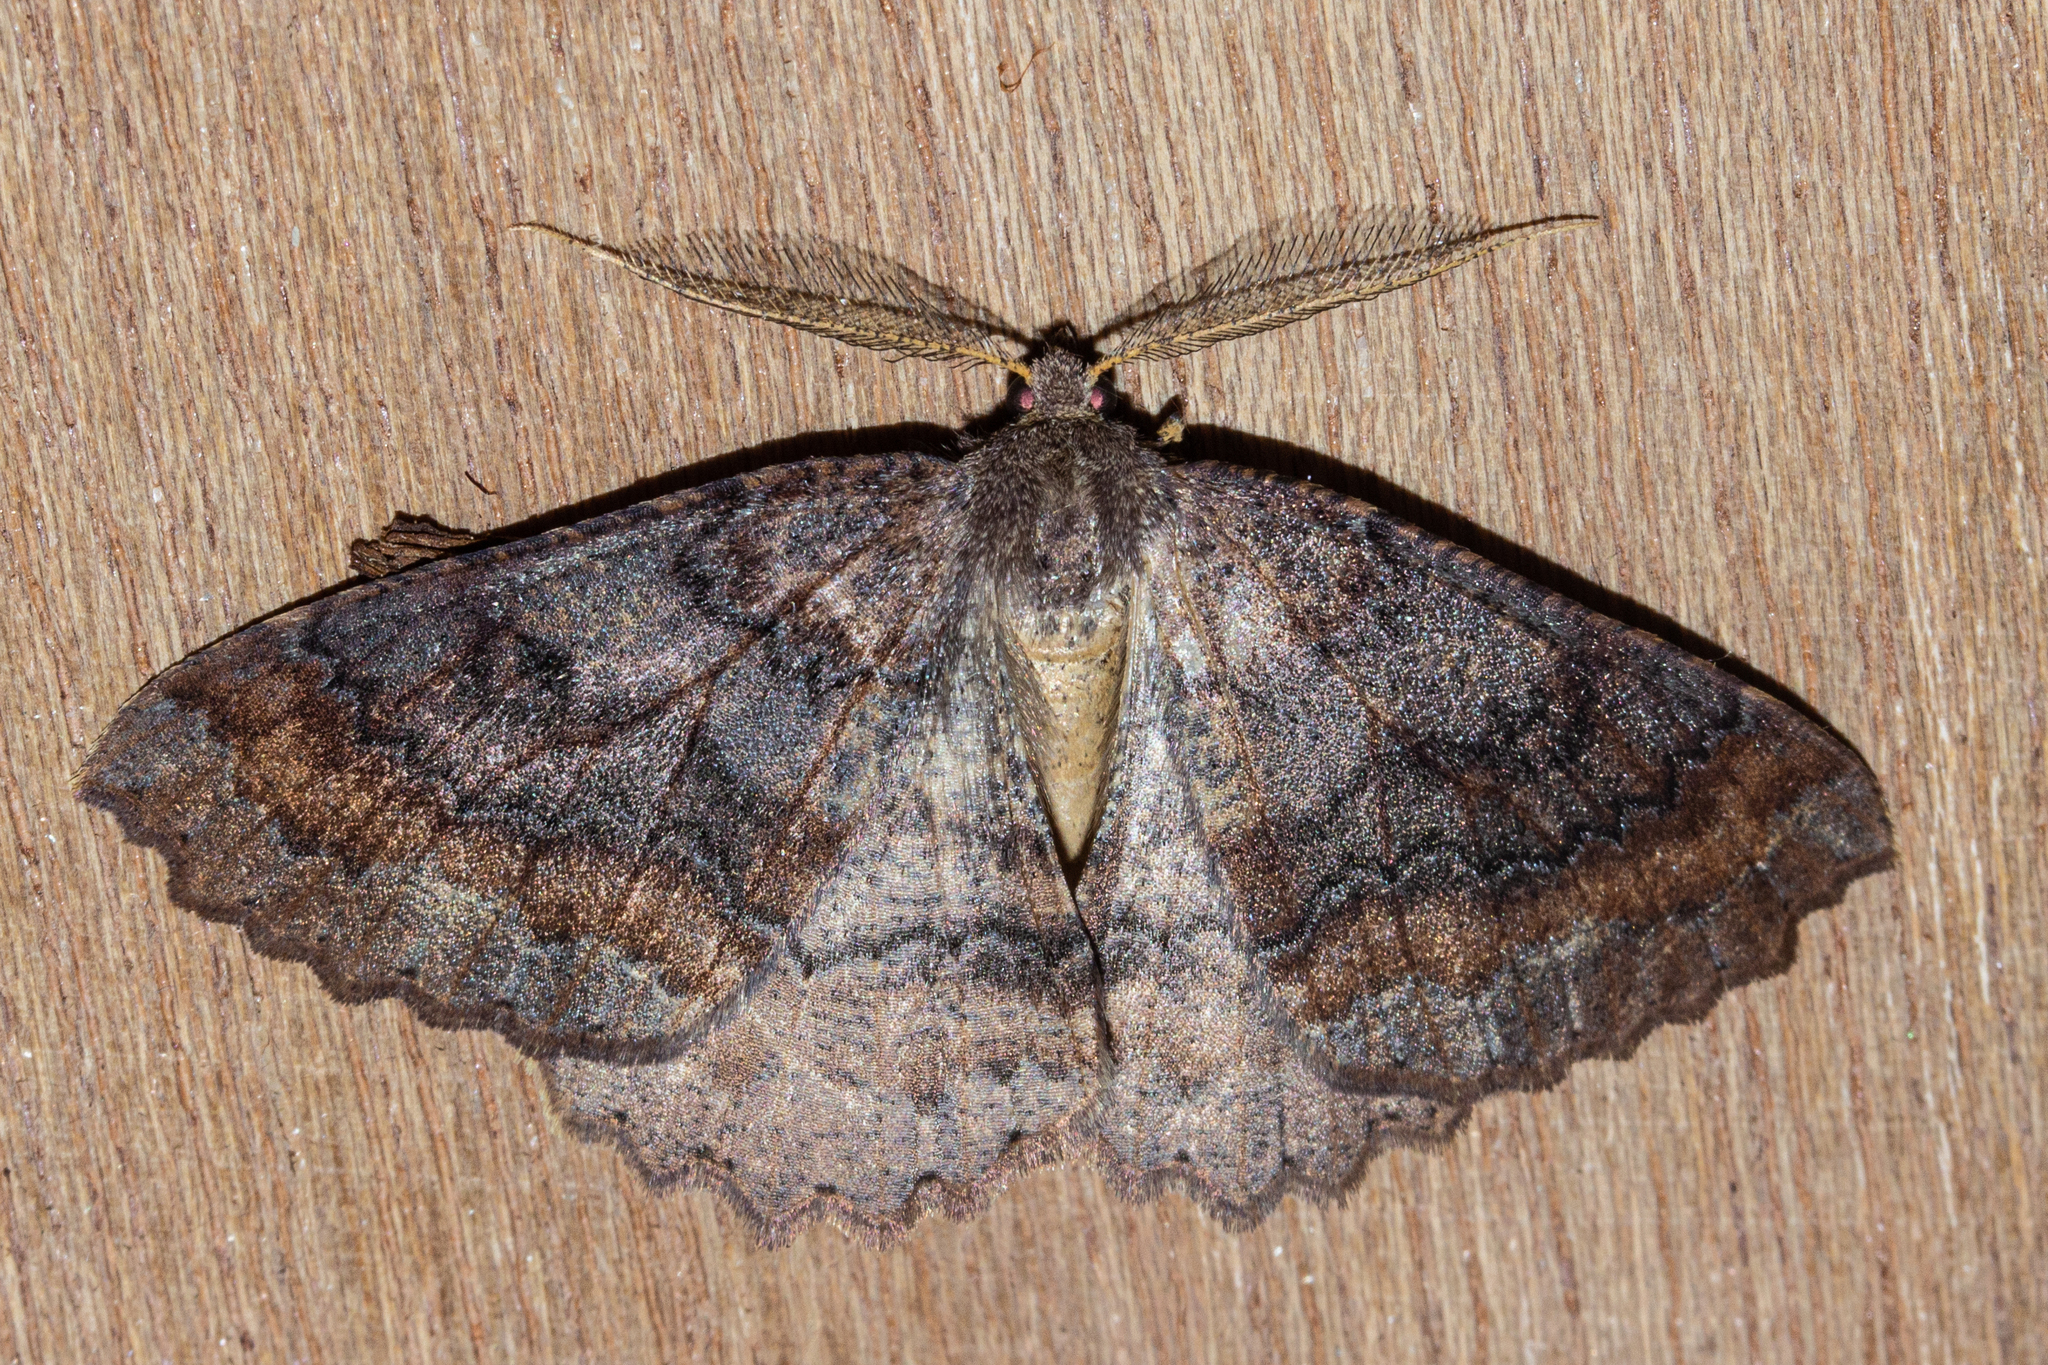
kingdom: Animalia
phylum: Arthropoda
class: Insecta
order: Lepidoptera
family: Geometridae
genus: Cleora
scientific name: Cleora scriptaria
